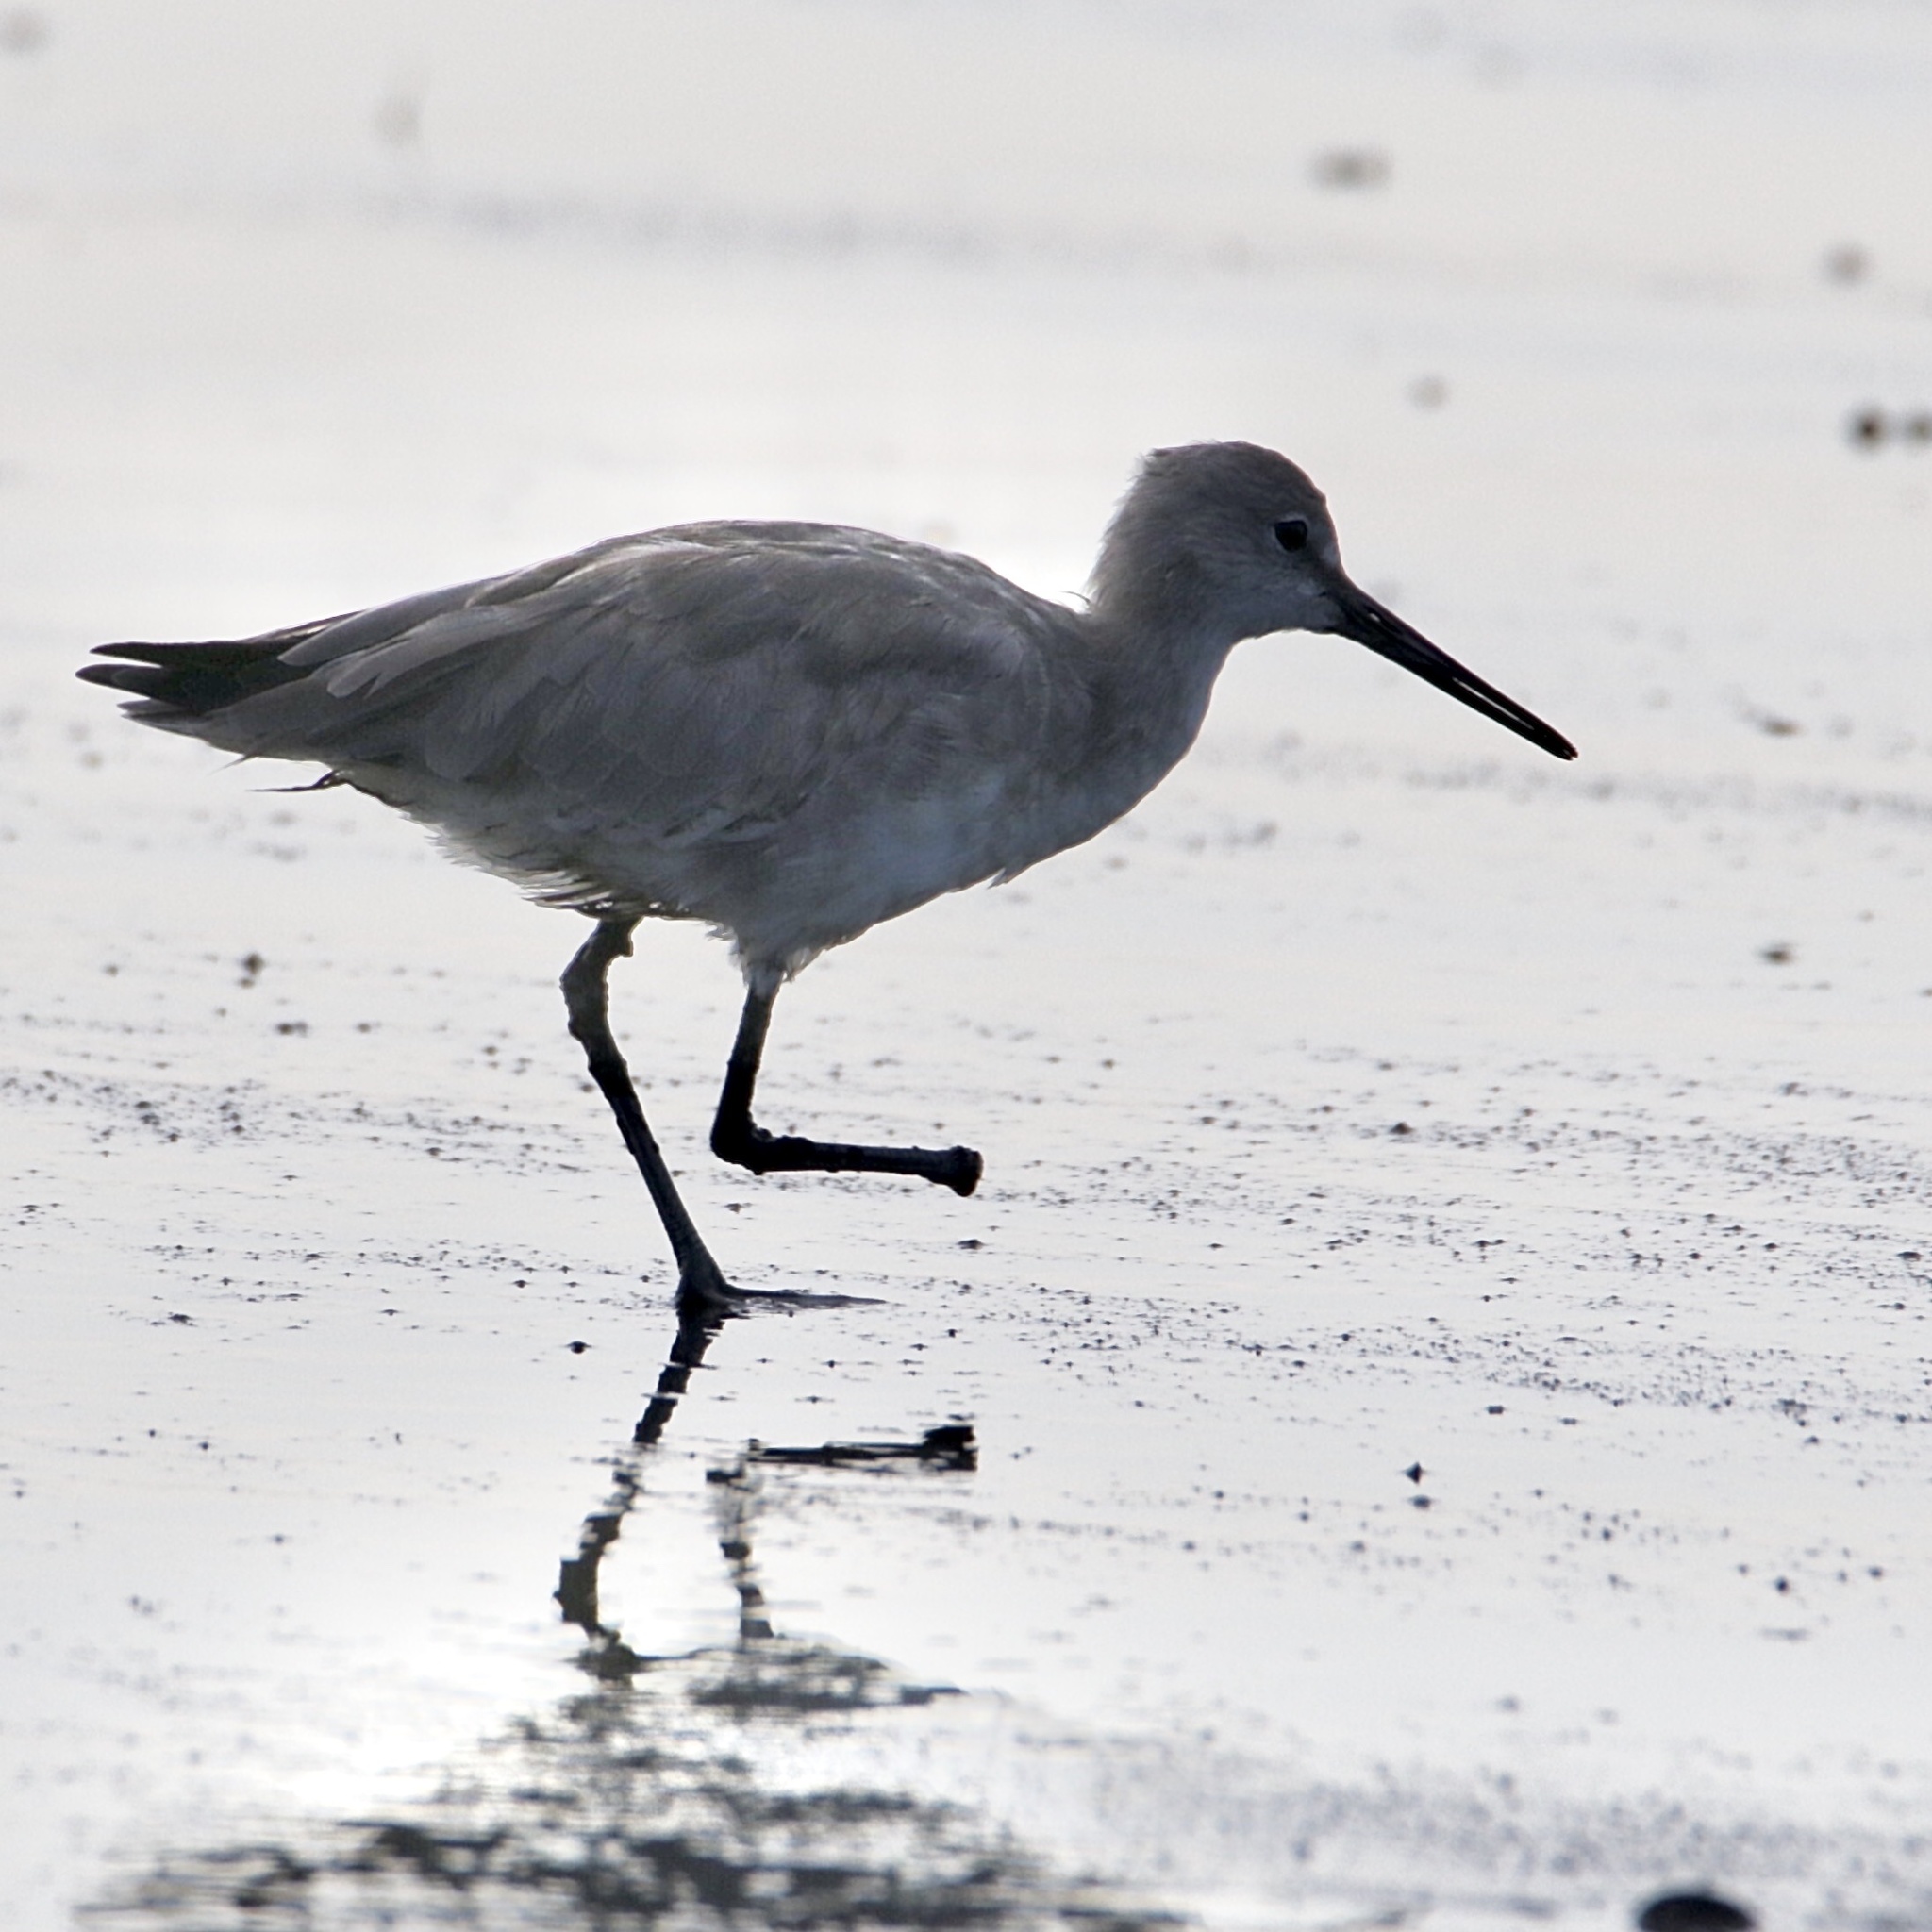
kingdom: Animalia
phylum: Chordata
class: Aves
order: Charadriiformes
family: Scolopacidae
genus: Tringa
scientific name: Tringa semipalmata
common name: Willet
